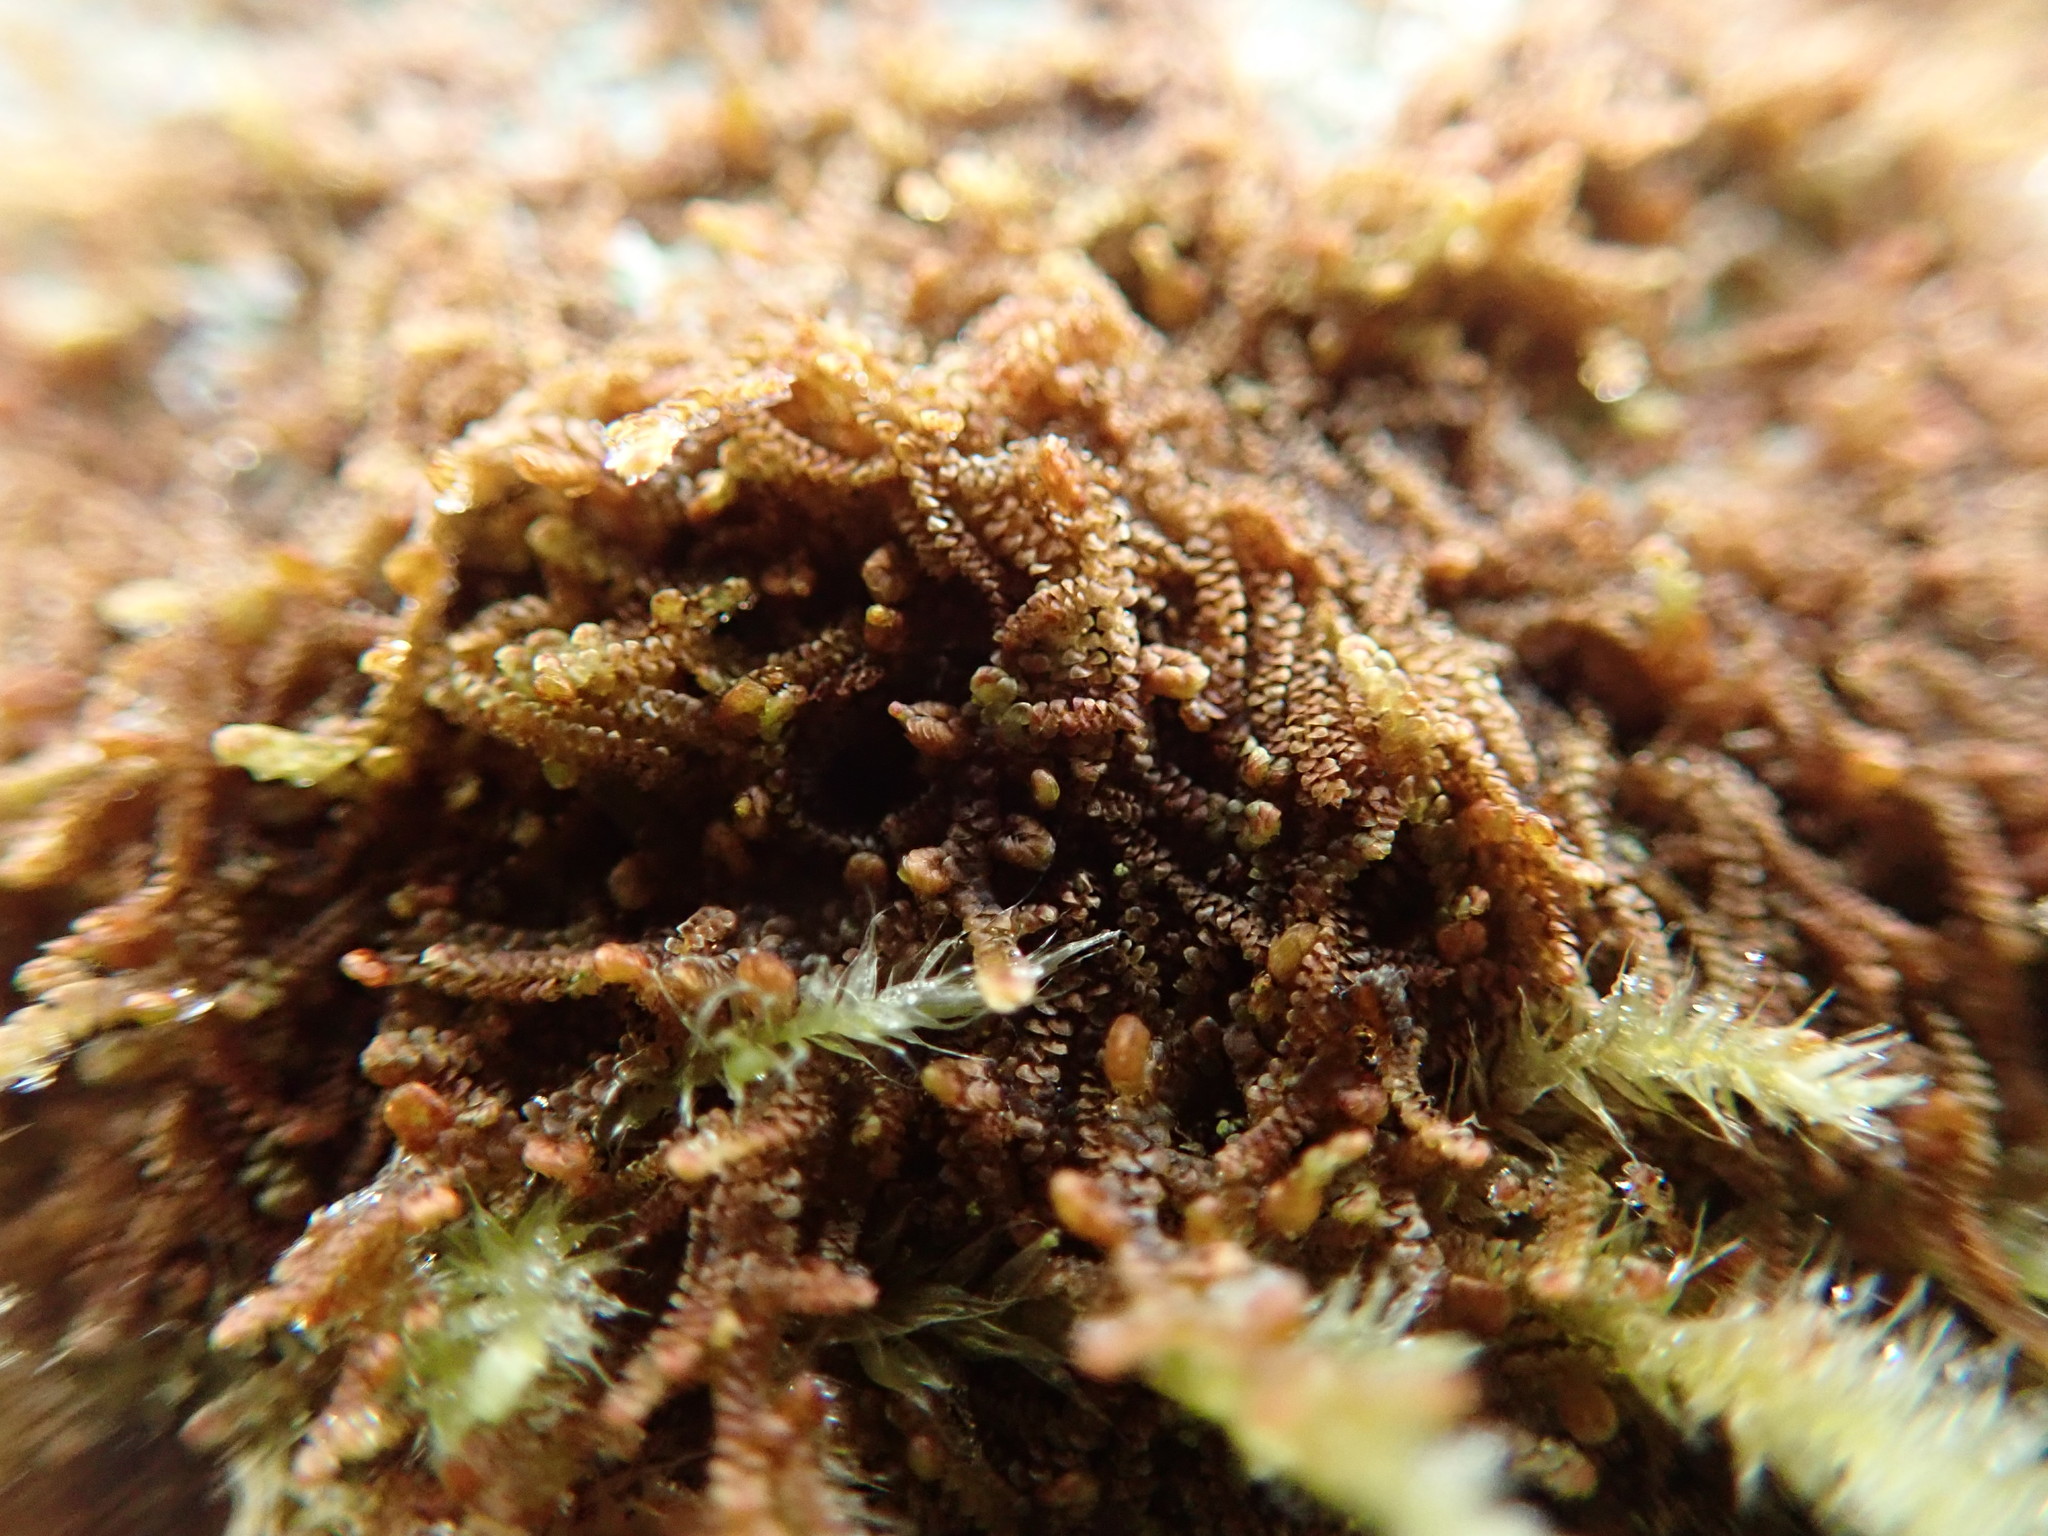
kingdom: Plantae
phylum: Marchantiophyta
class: Jungermanniopsida
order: Porellales
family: Frullaniaceae
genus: Frullania
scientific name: Frullania nisquallensis
